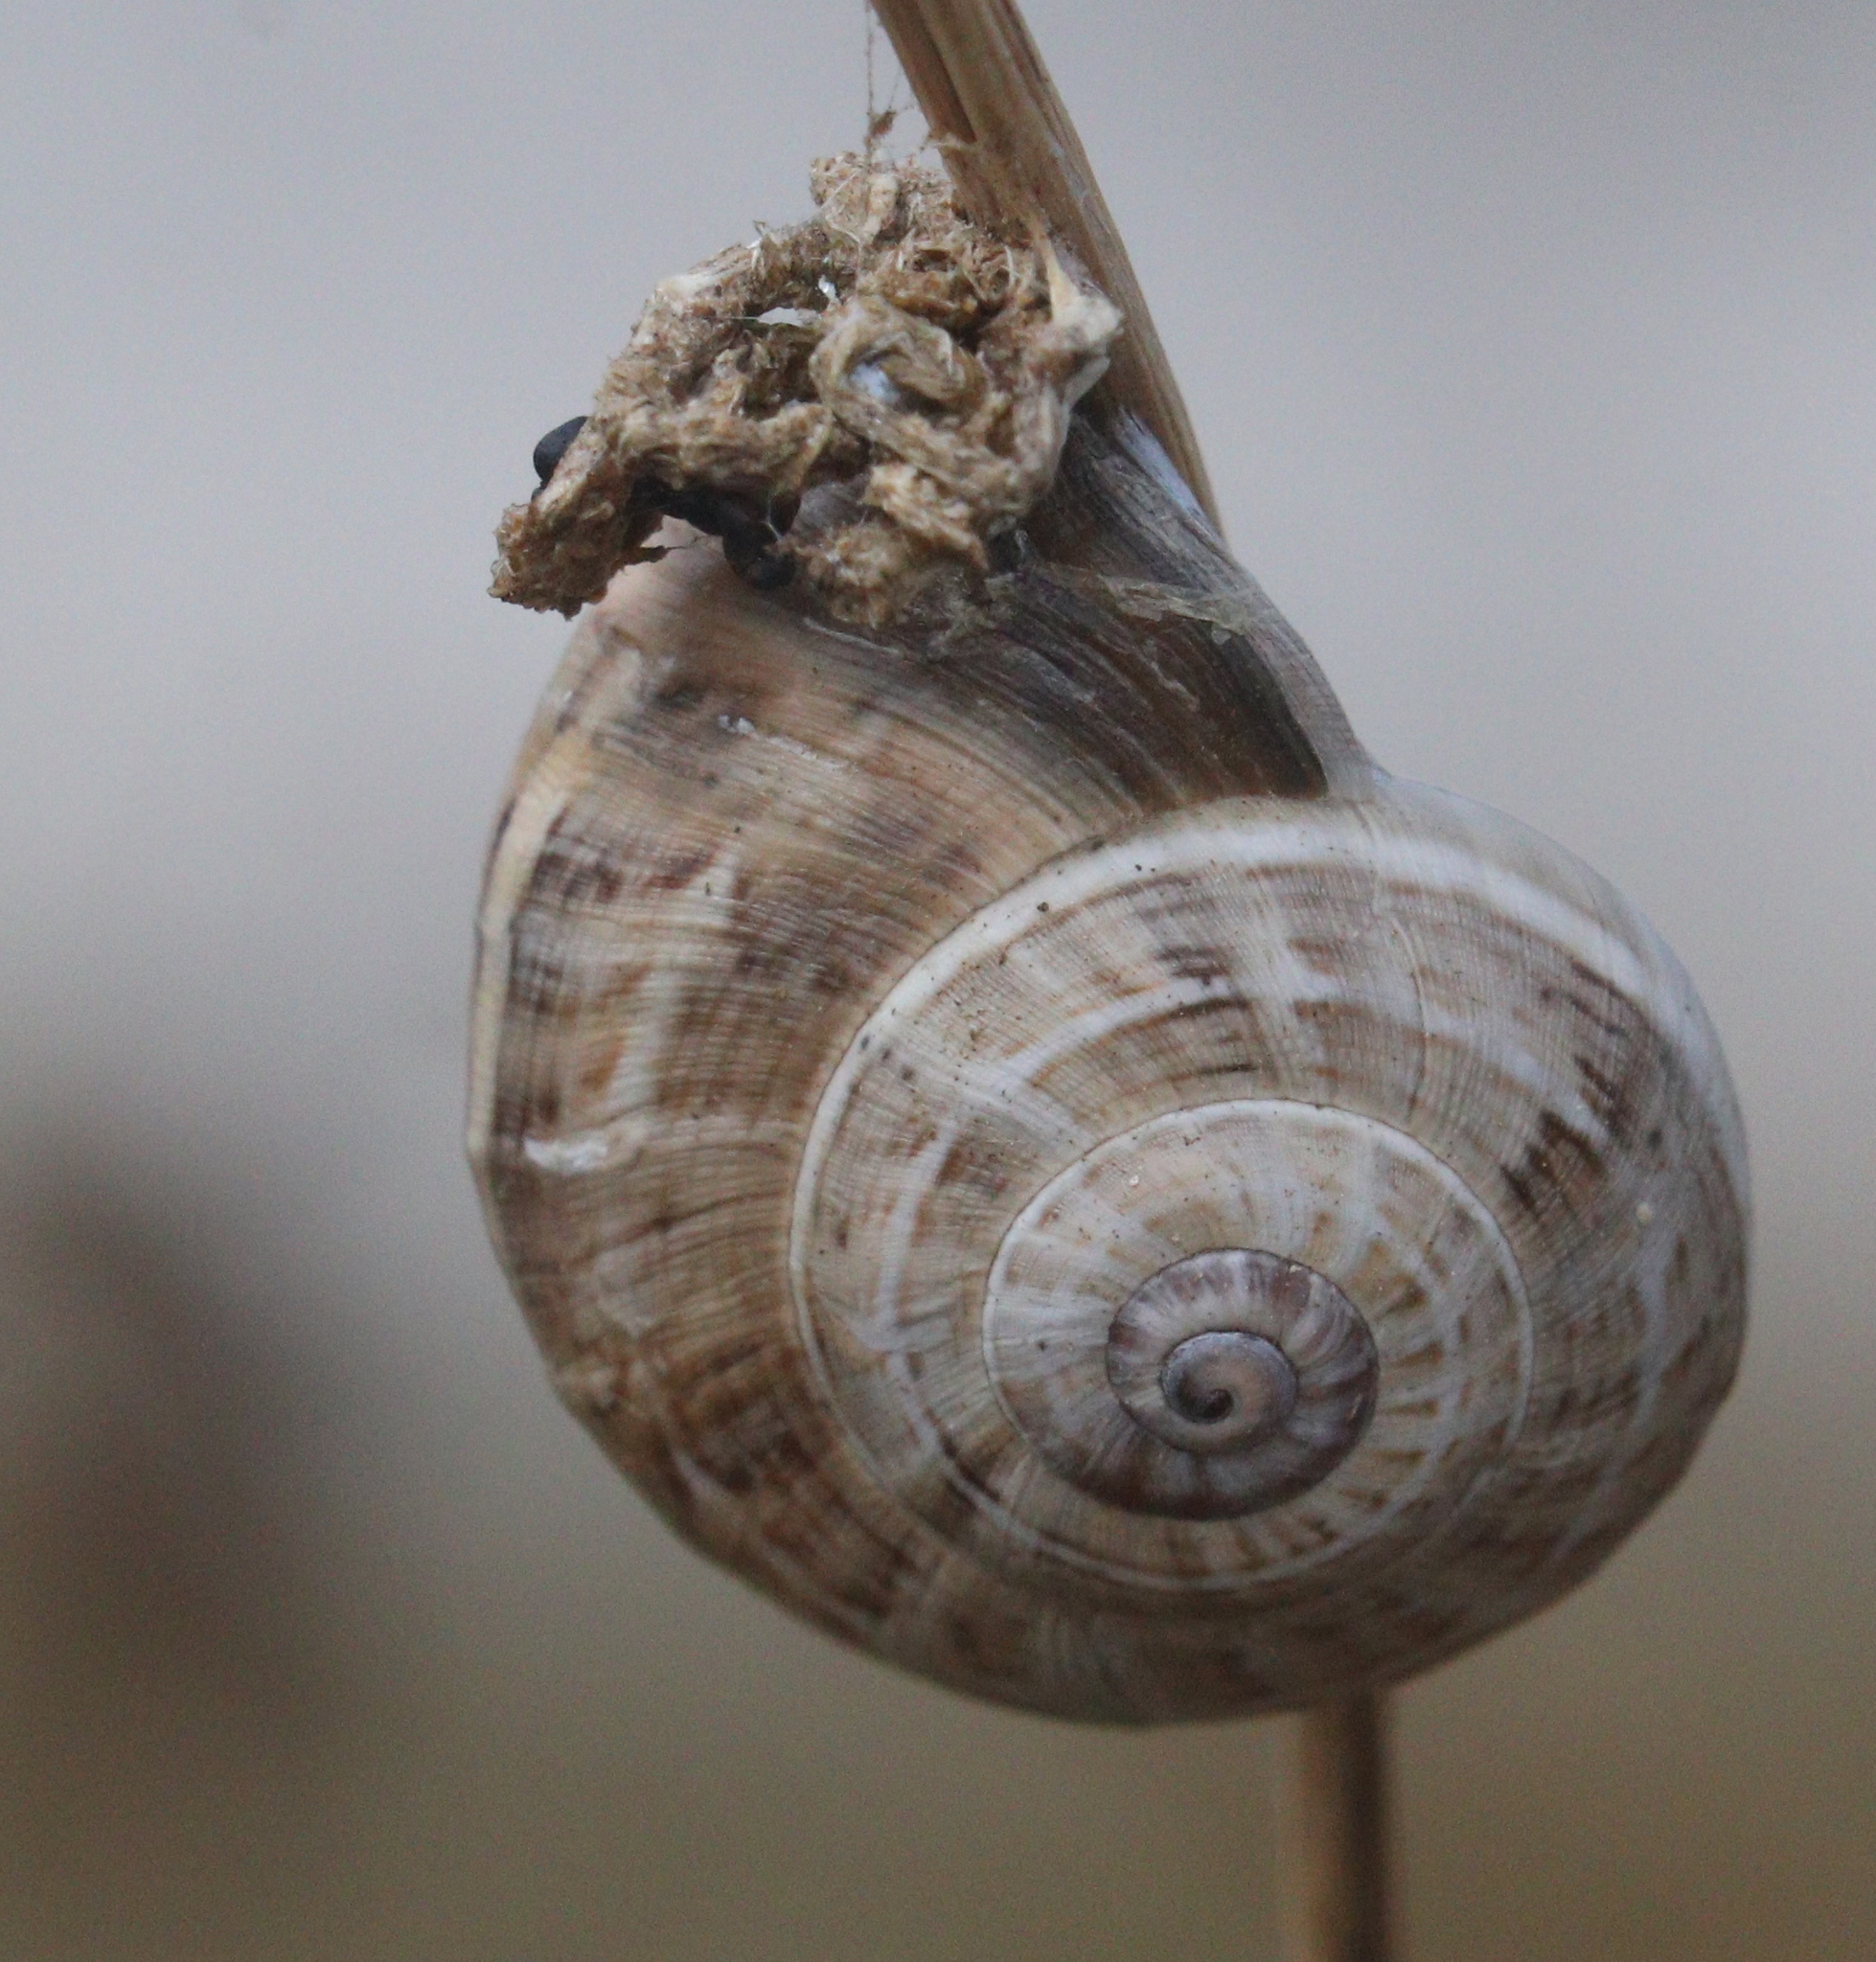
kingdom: Animalia
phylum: Mollusca
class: Gastropoda
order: Stylommatophora
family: Helicidae
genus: Theba
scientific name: Theba pisana
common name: White snail
